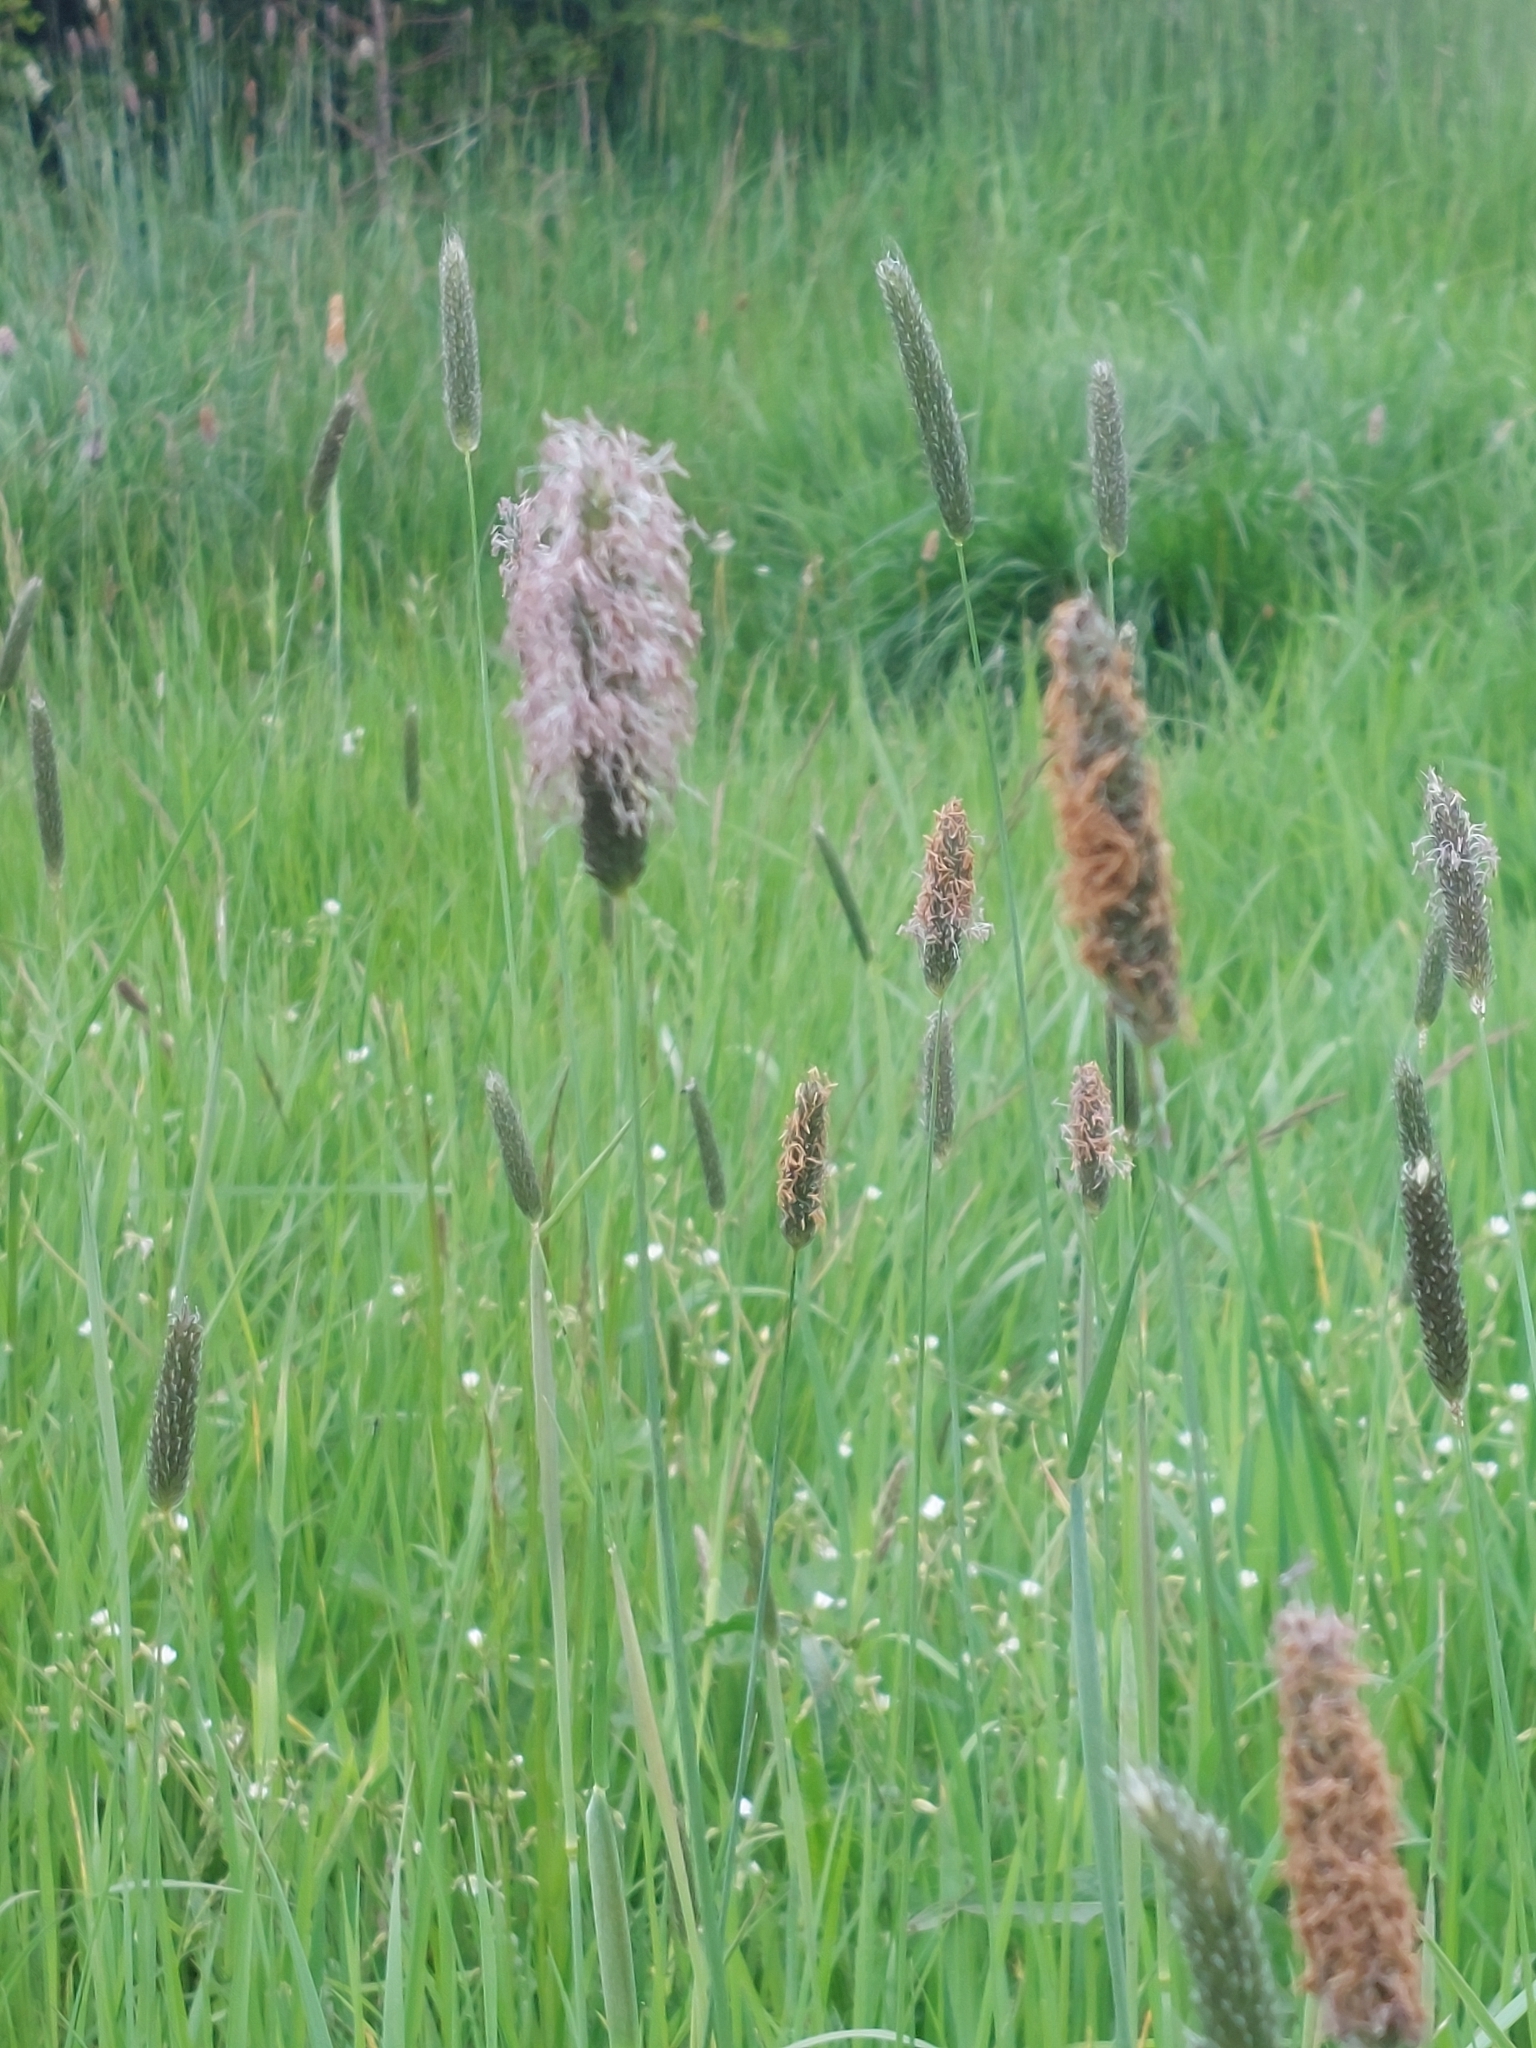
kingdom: Plantae
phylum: Tracheophyta
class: Liliopsida
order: Poales
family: Poaceae
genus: Alopecurus
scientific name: Alopecurus pratensis
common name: Meadow foxtail
